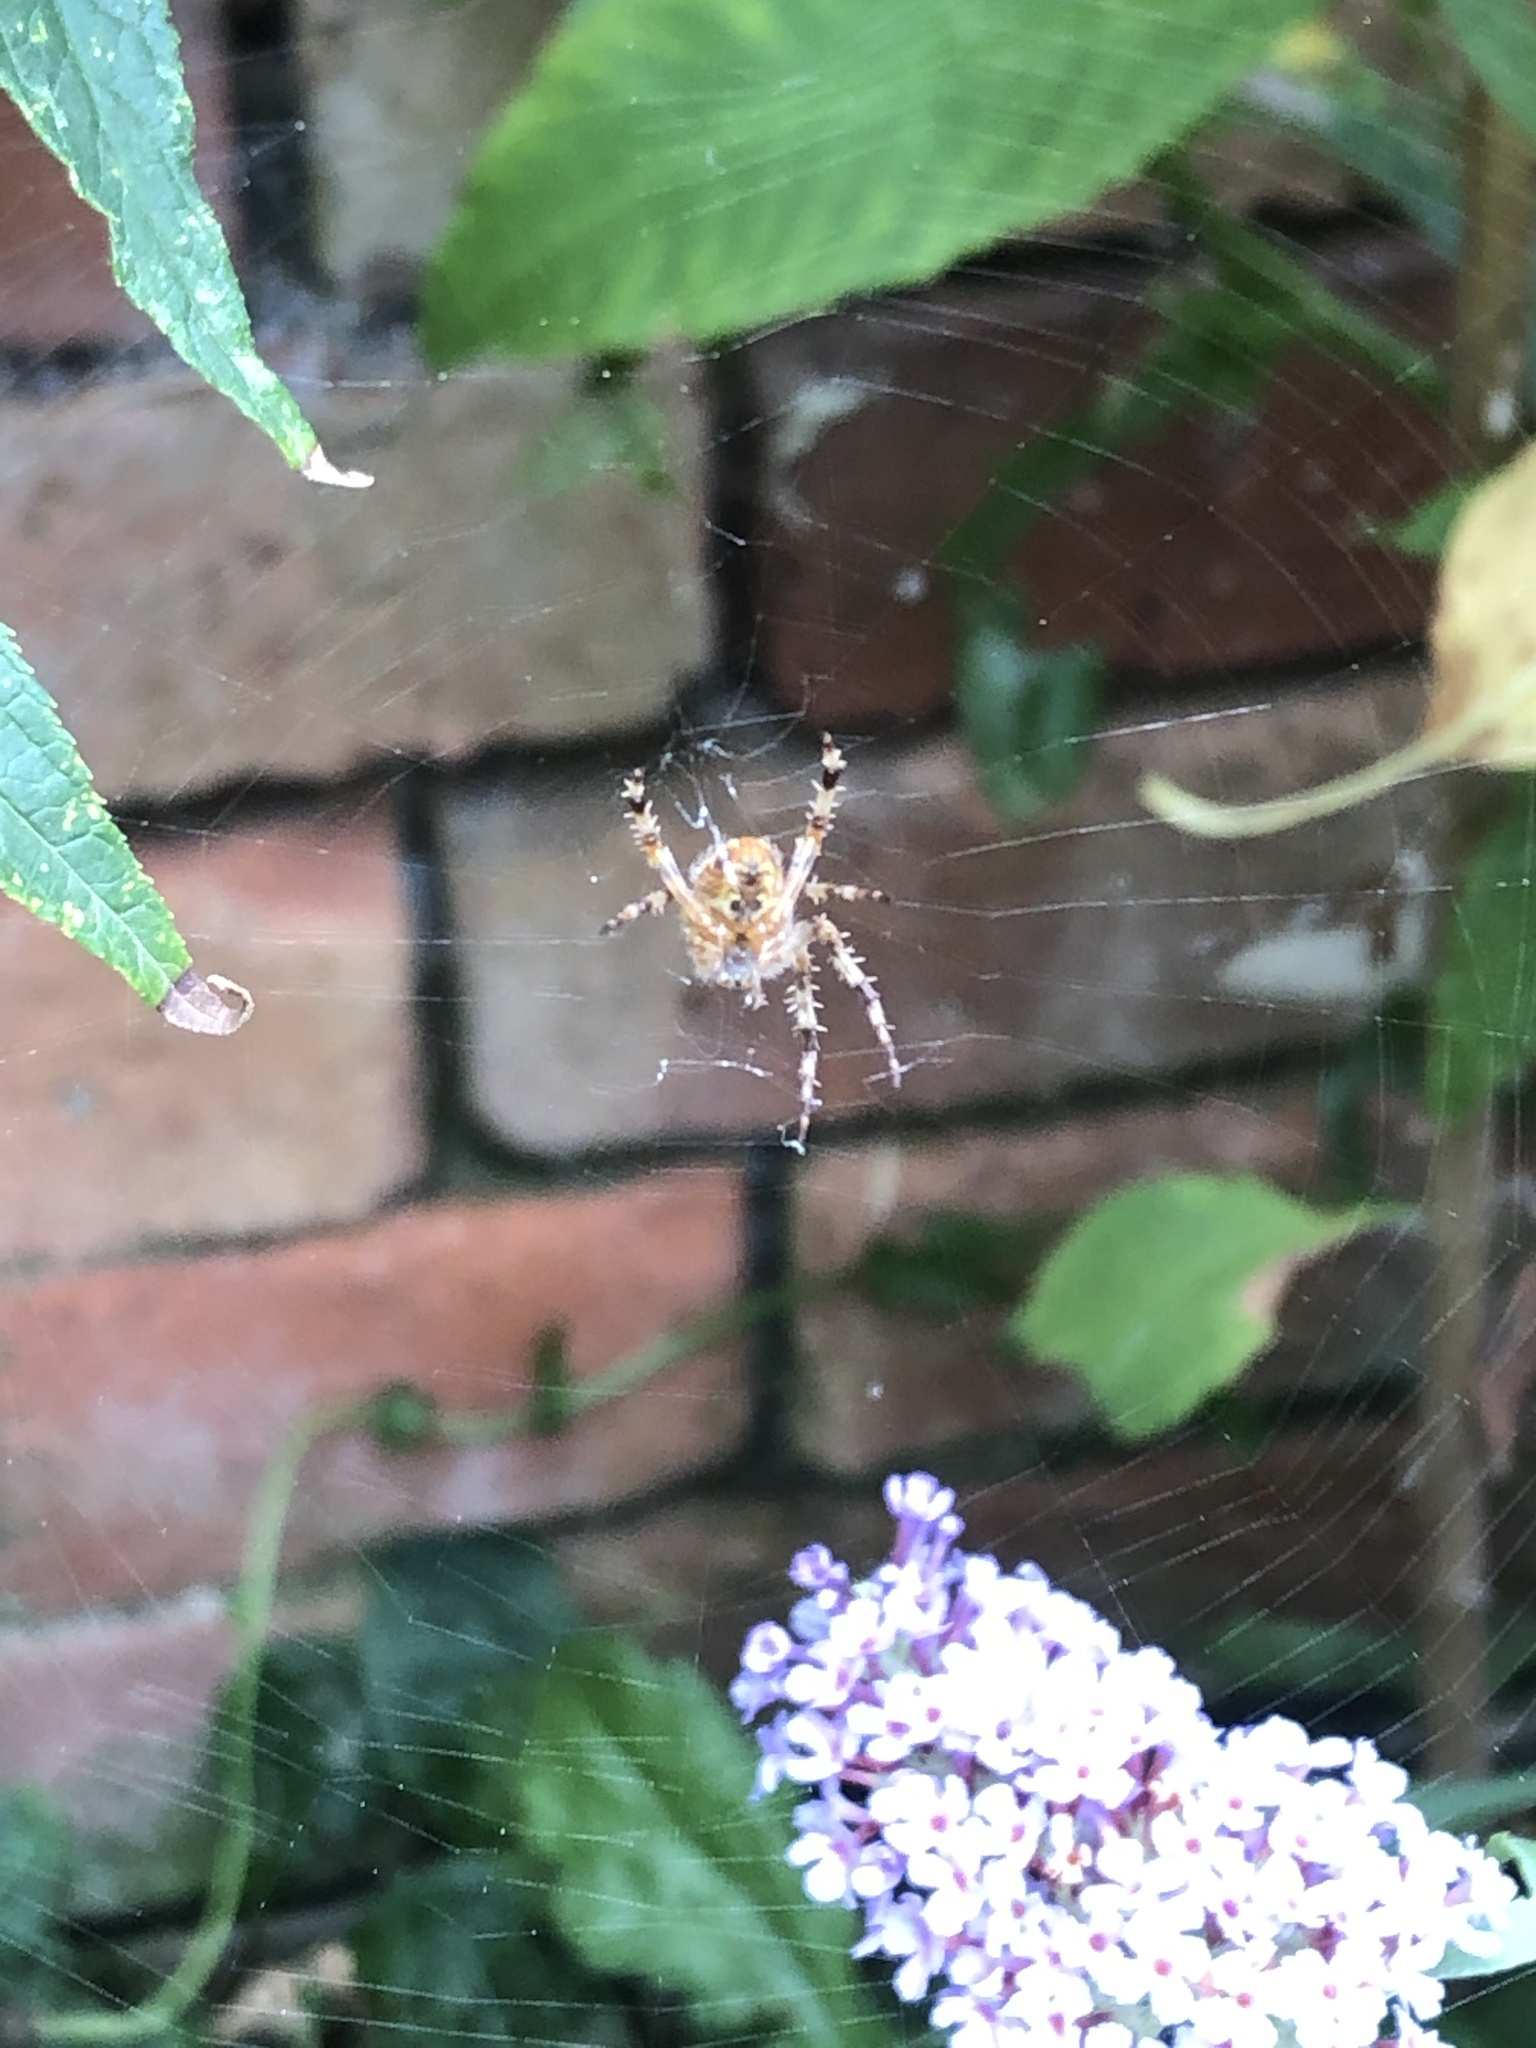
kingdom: Animalia
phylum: Arthropoda
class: Arachnida
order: Araneae
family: Araneidae
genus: Araneus
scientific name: Araneus diadematus
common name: Cross orbweaver
